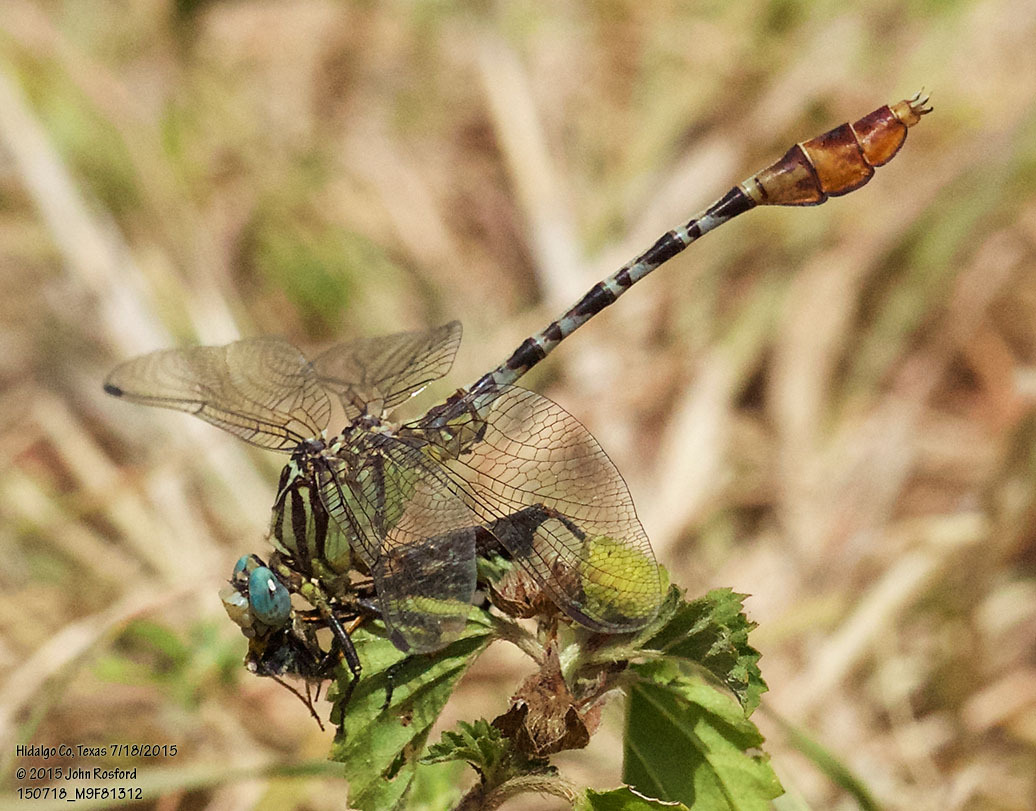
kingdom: Animalia
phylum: Arthropoda
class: Insecta
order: Odonata
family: Gomphidae
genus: Dromogomphus
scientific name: Dromogomphus spoliatus
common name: Flag-tailed spinyleg
